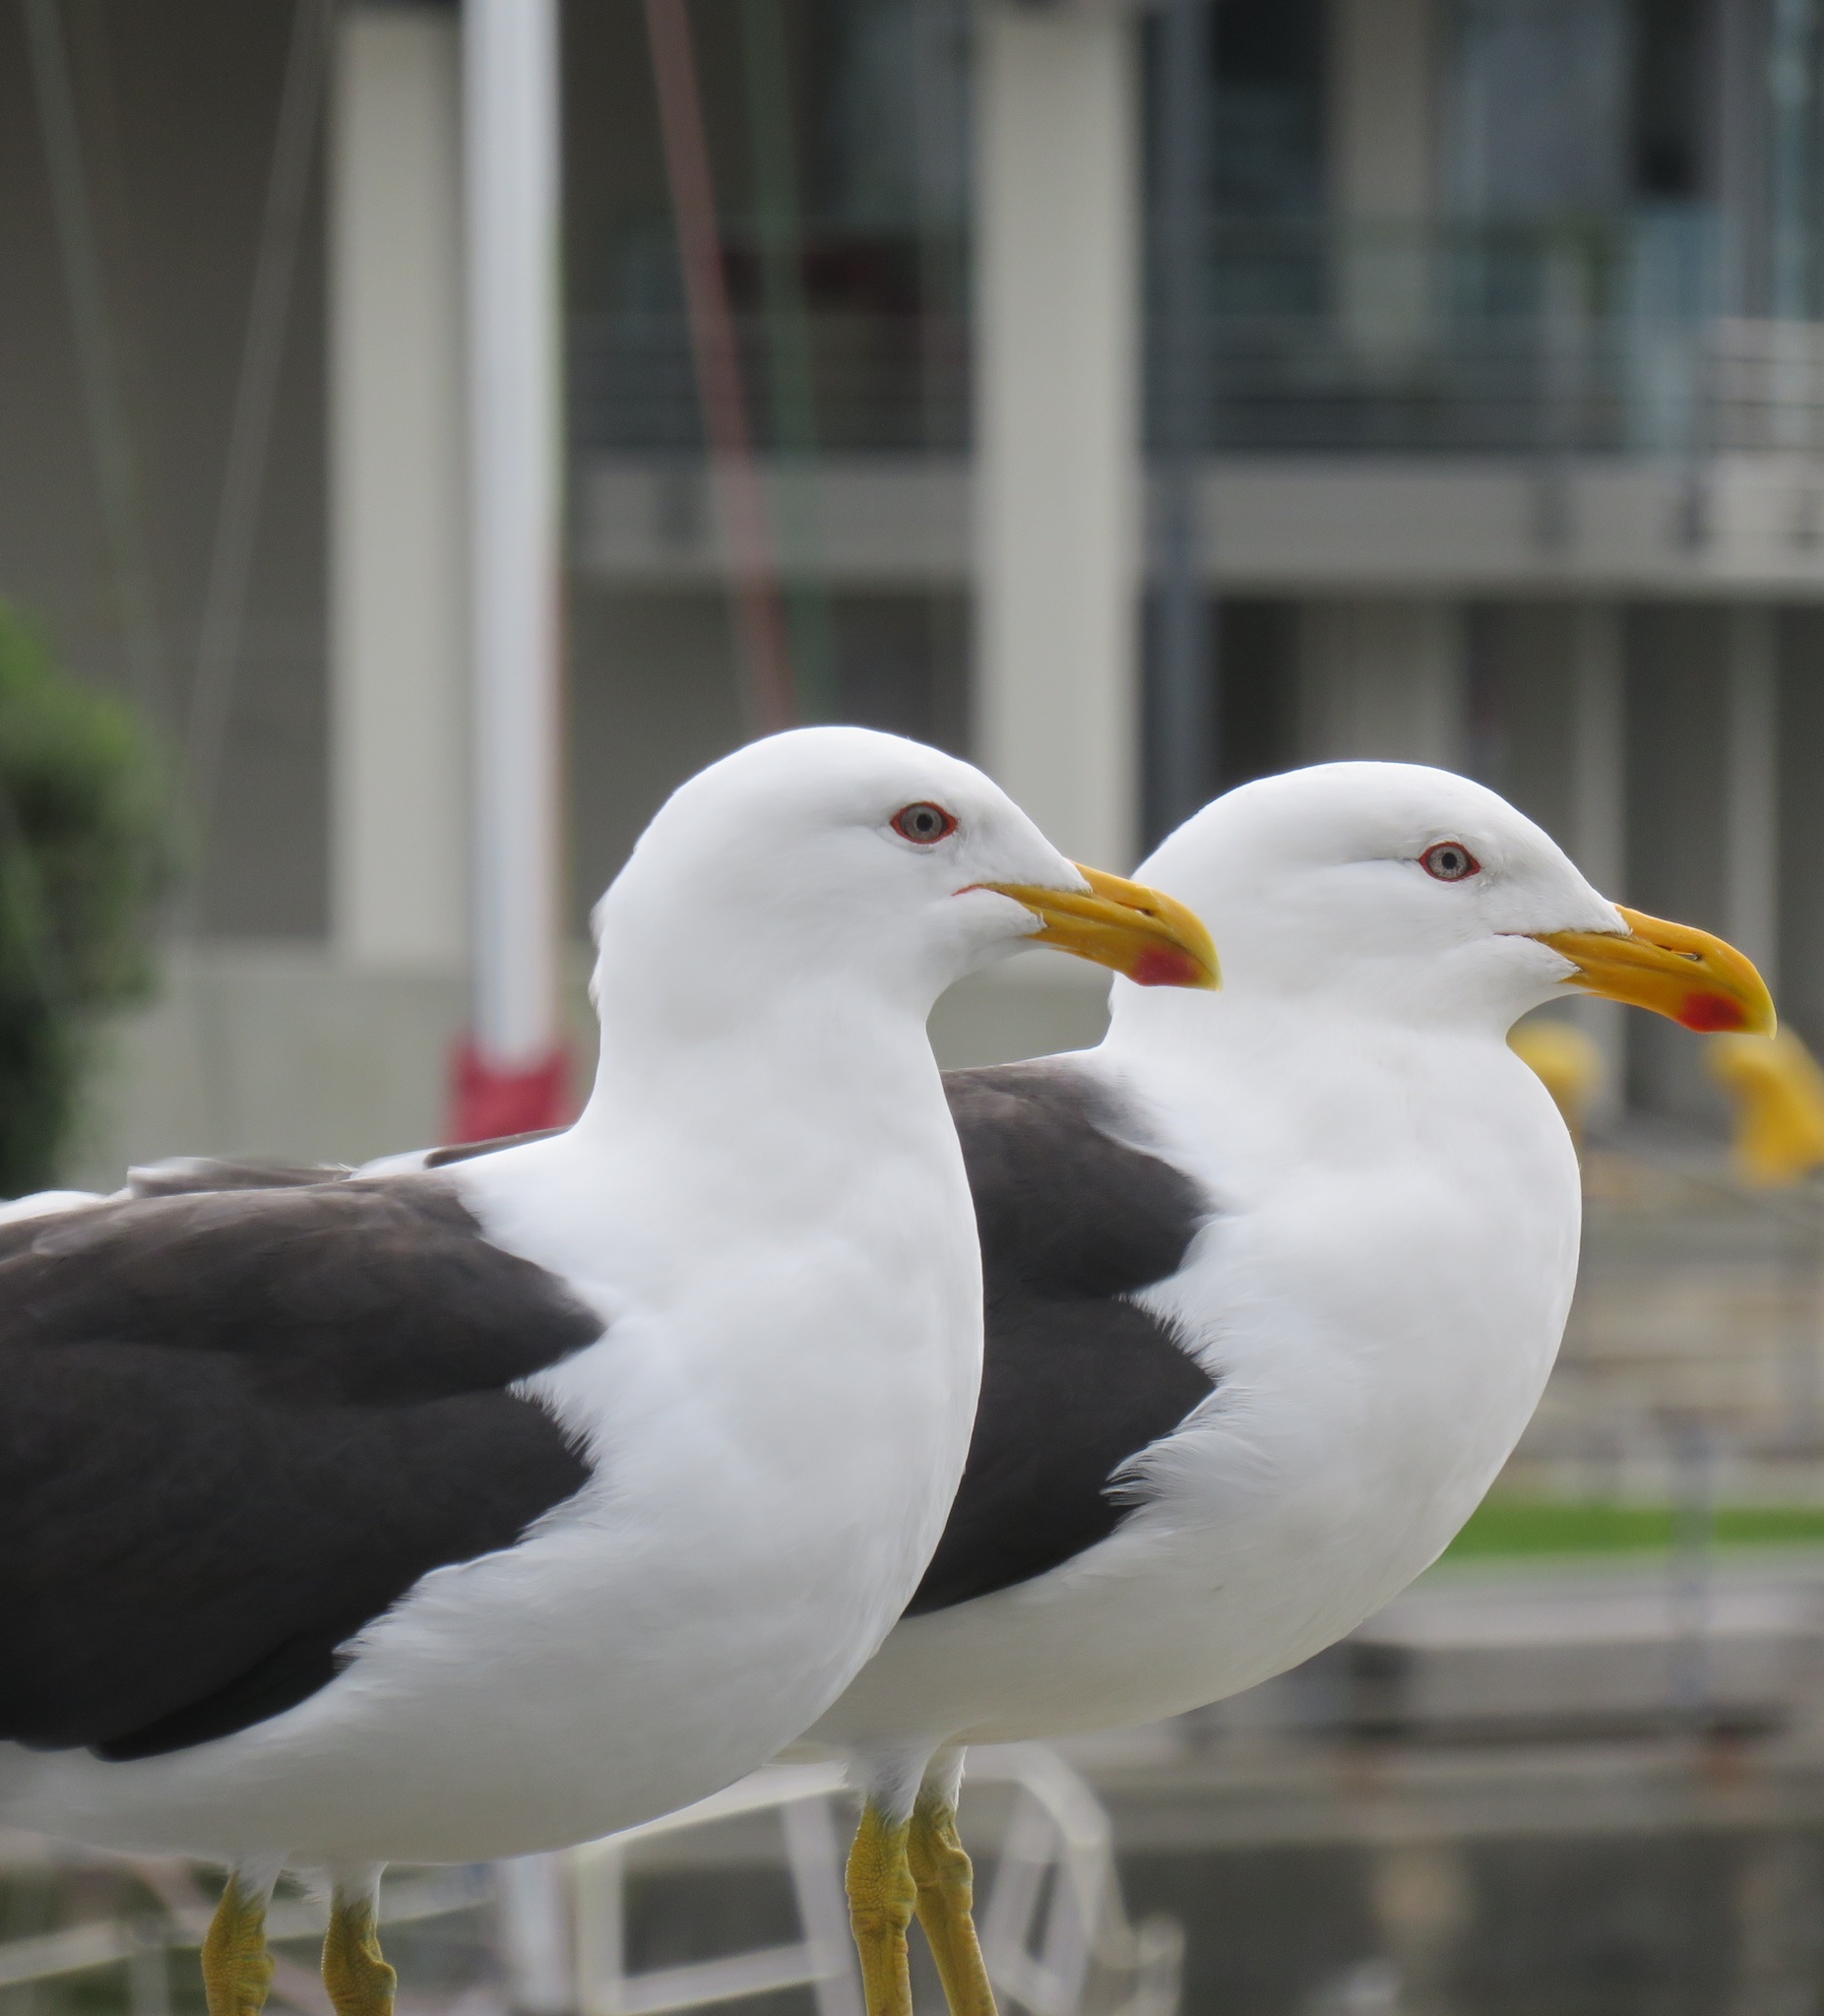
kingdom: Animalia
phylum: Chordata
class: Aves
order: Charadriiformes
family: Laridae
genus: Larus
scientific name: Larus dominicanus
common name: Kelp gull
